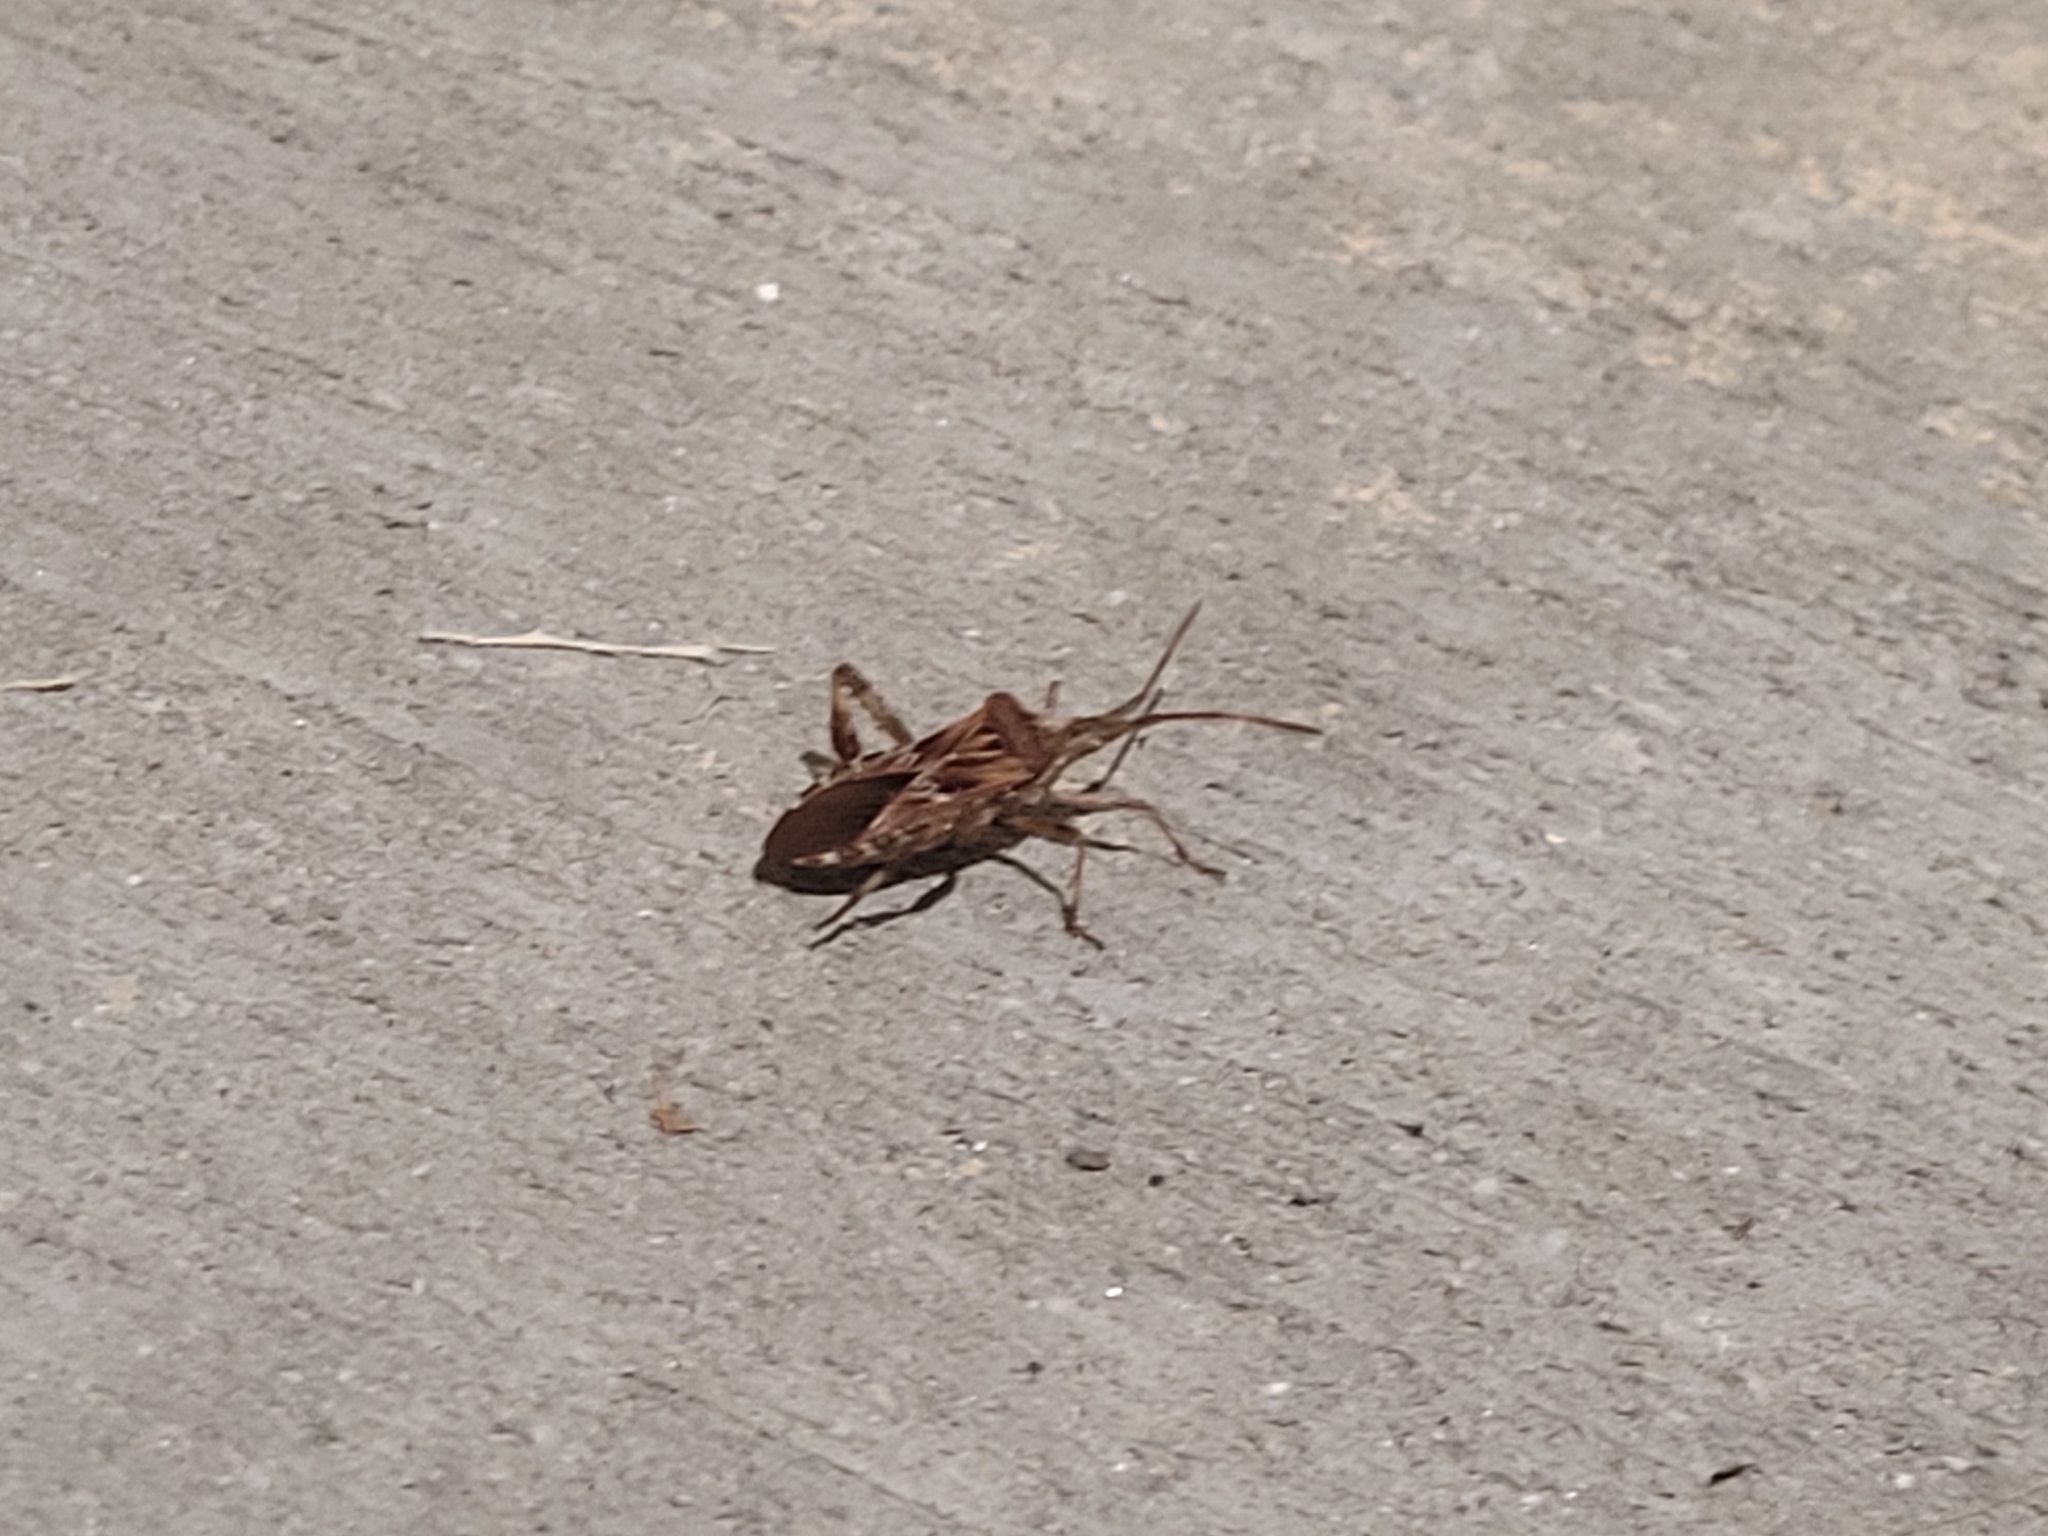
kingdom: Animalia
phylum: Arthropoda
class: Insecta
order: Hemiptera
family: Coreidae
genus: Leptoglossus
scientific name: Leptoglossus occidentalis
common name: Western conifer-seed bug
